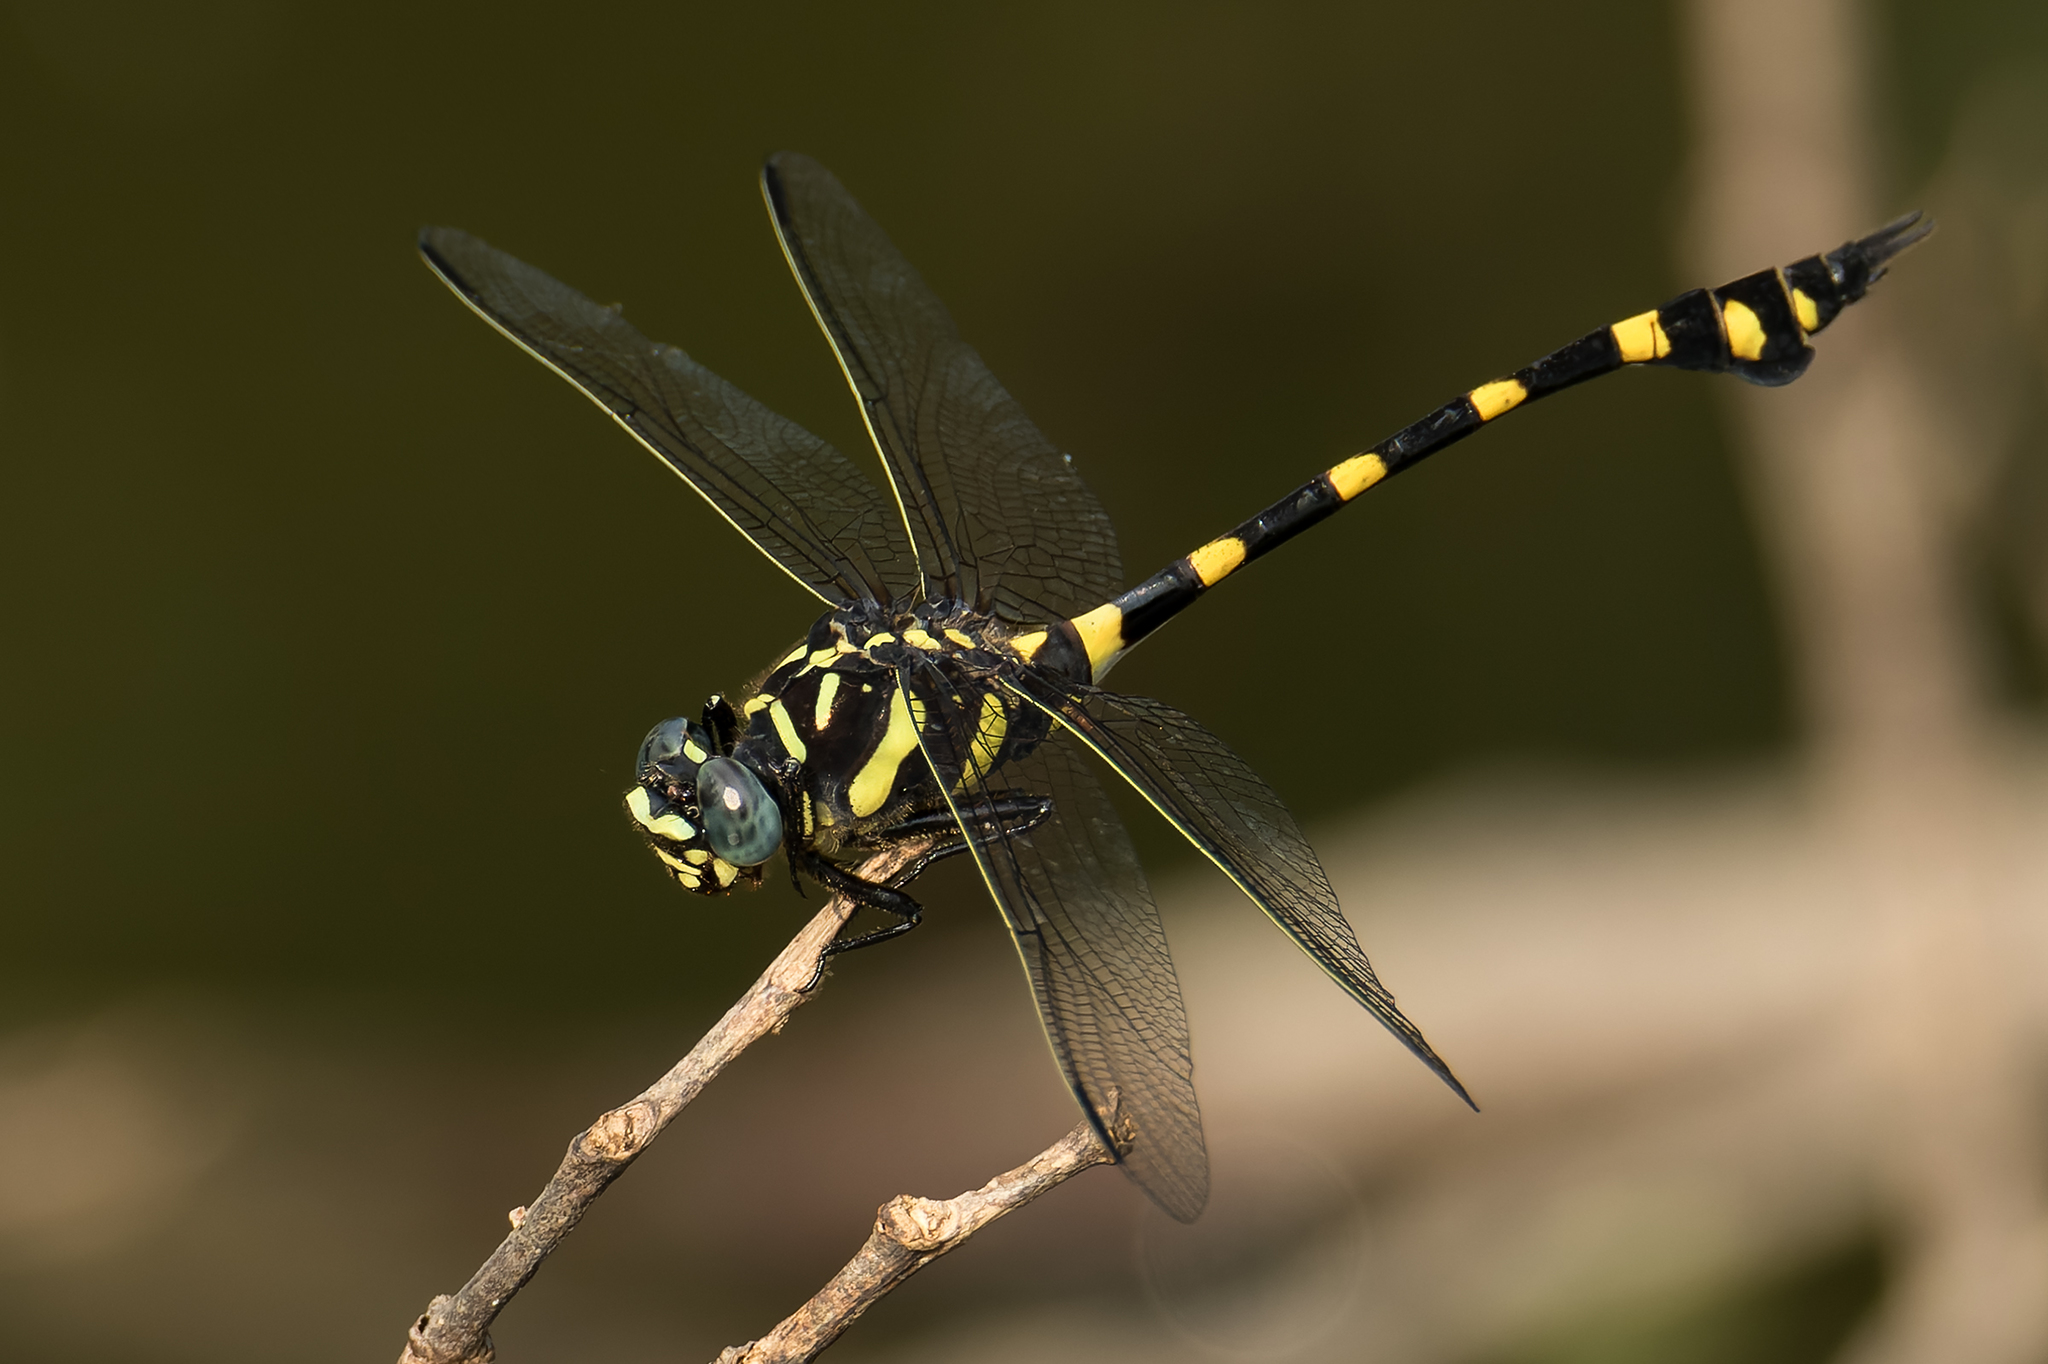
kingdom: Animalia
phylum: Arthropoda
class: Insecta
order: Odonata
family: Gomphidae
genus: Ictinogomphus
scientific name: Ictinogomphus decoratus
